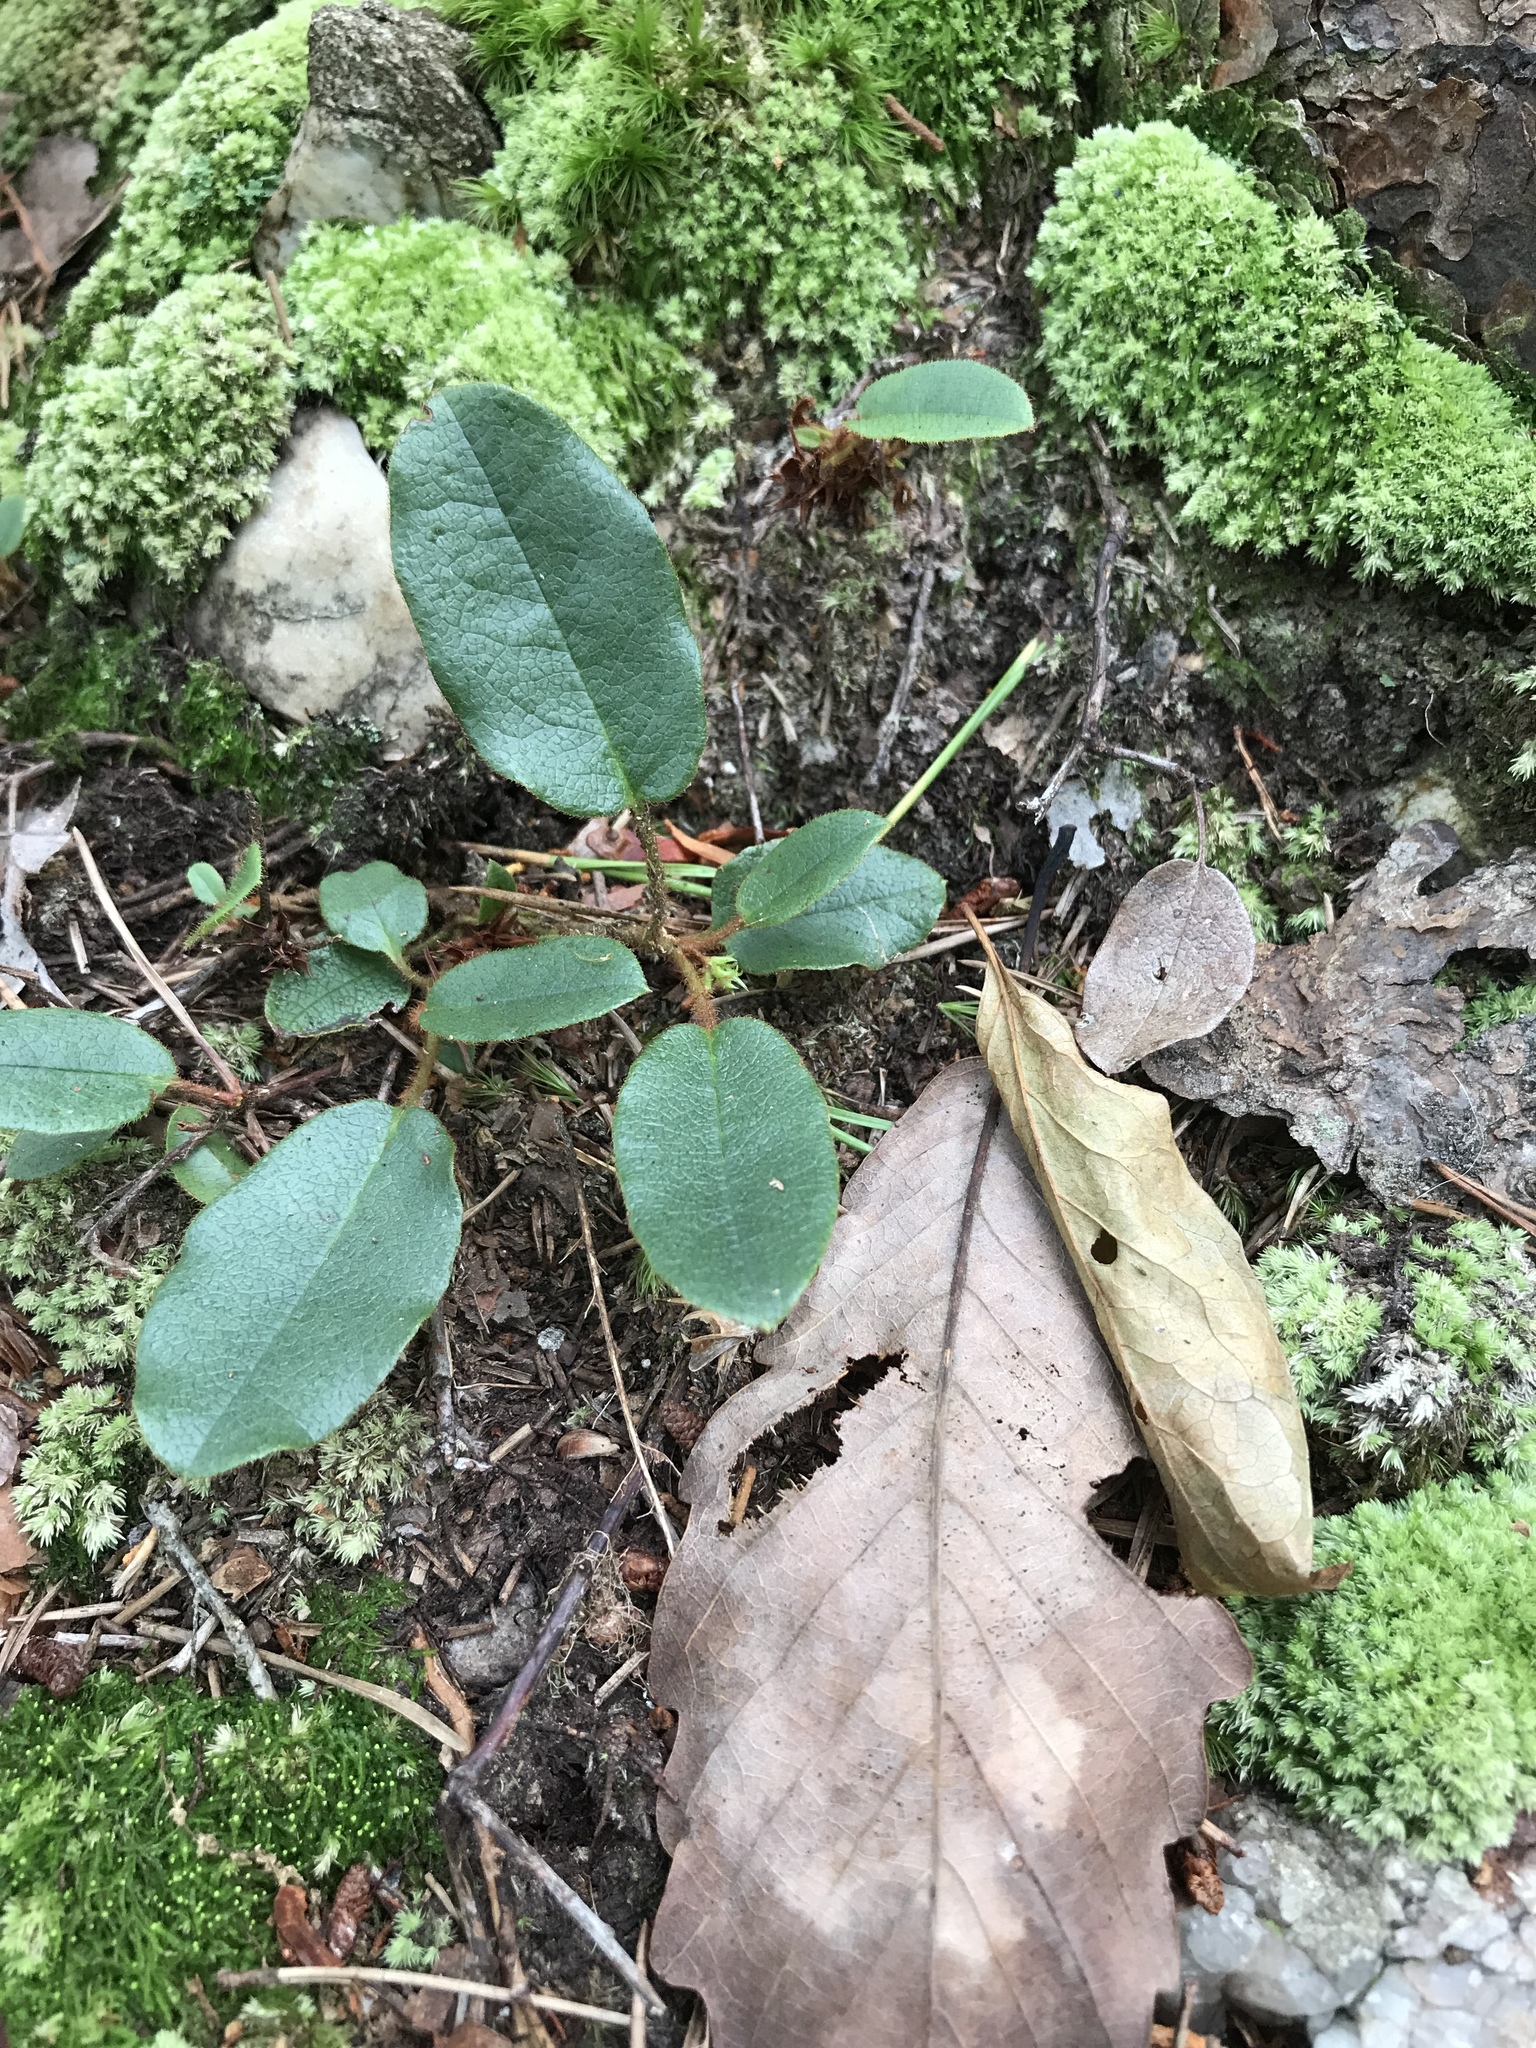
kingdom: Plantae
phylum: Tracheophyta
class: Magnoliopsida
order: Ericales
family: Ericaceae
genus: Epigaea
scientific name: Epigaea repens
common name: Gravelroot
